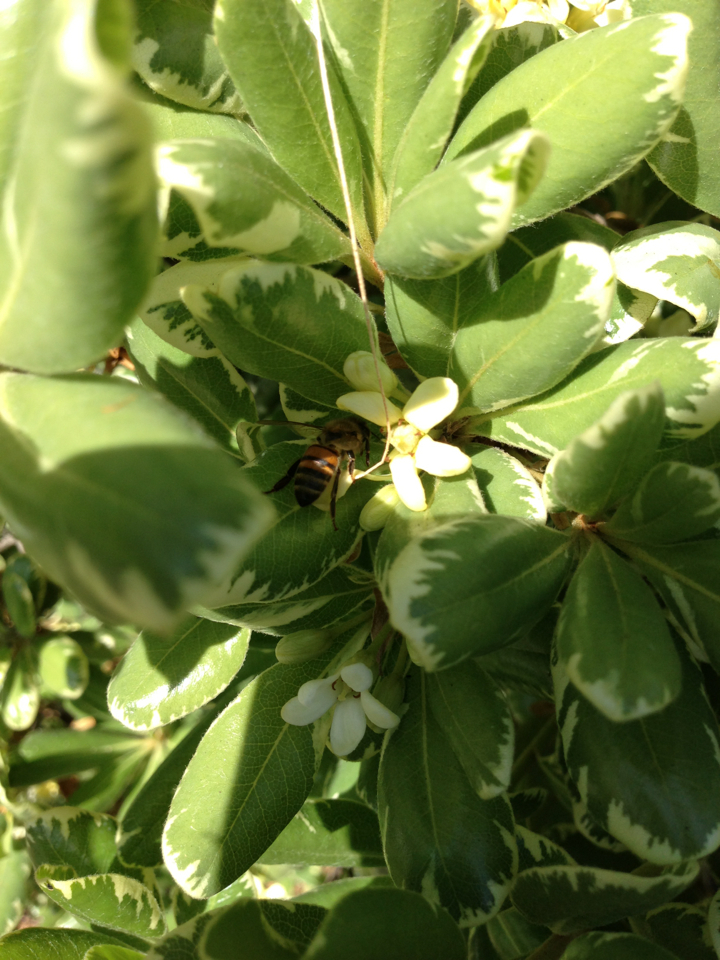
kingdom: Animalia
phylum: Arthropoda
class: Insecta
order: Hymenoptera
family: Apidae
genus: Apis
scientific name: Apis mellifera
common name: Honey bee
